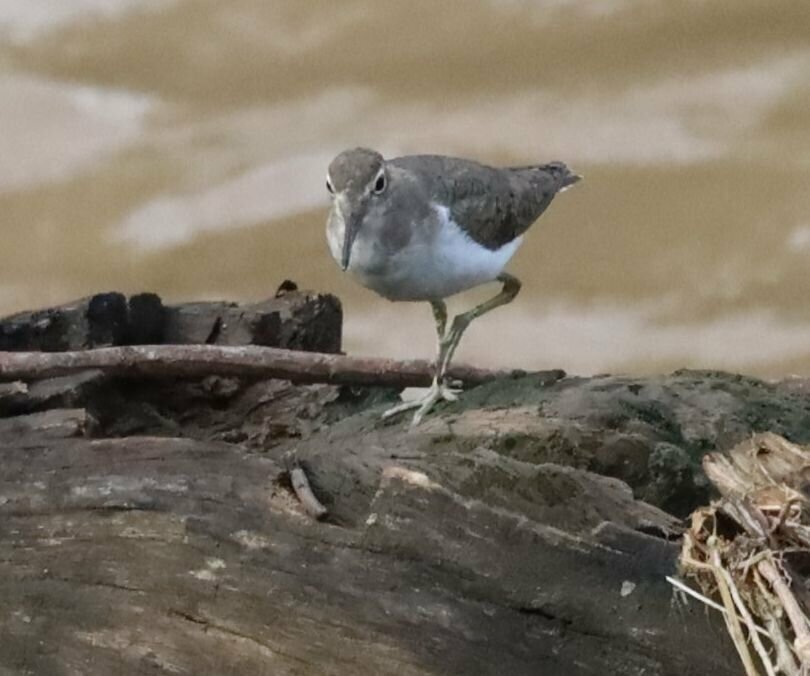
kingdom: Animalia
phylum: Chordata
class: Aves
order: Charadriiformes
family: Scolopacidae
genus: Actitis
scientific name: Actitis macularius
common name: Spotted sandpiper
